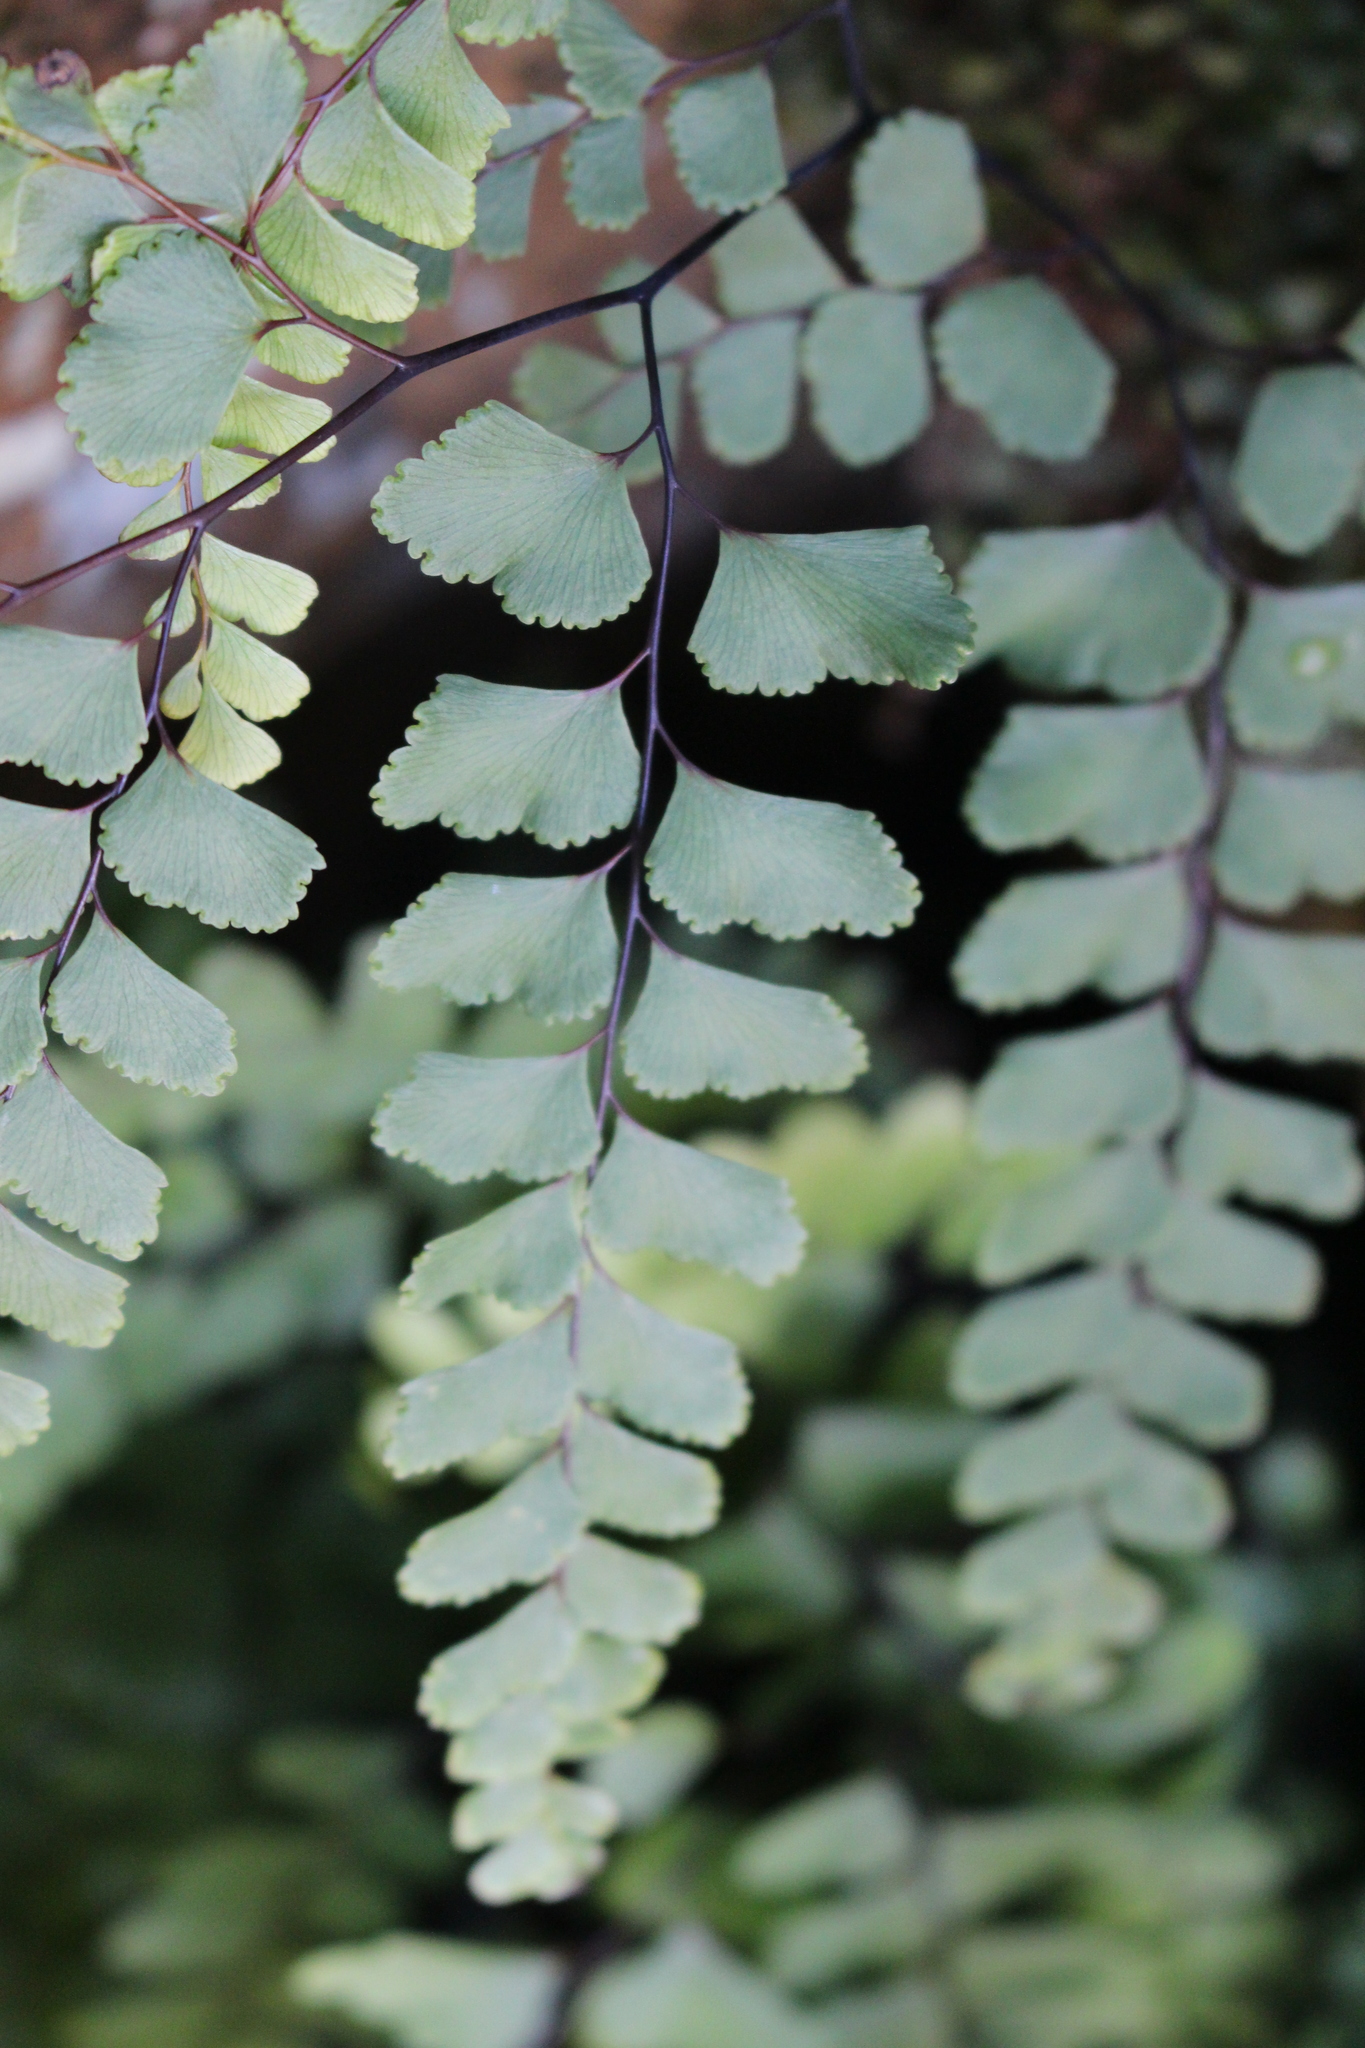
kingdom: Plantae
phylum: Tracheophyta
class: Polypodiopsida
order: Polypodiales
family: Pteridaceae
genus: Adiantum
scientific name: Adiantum cunninghamii
